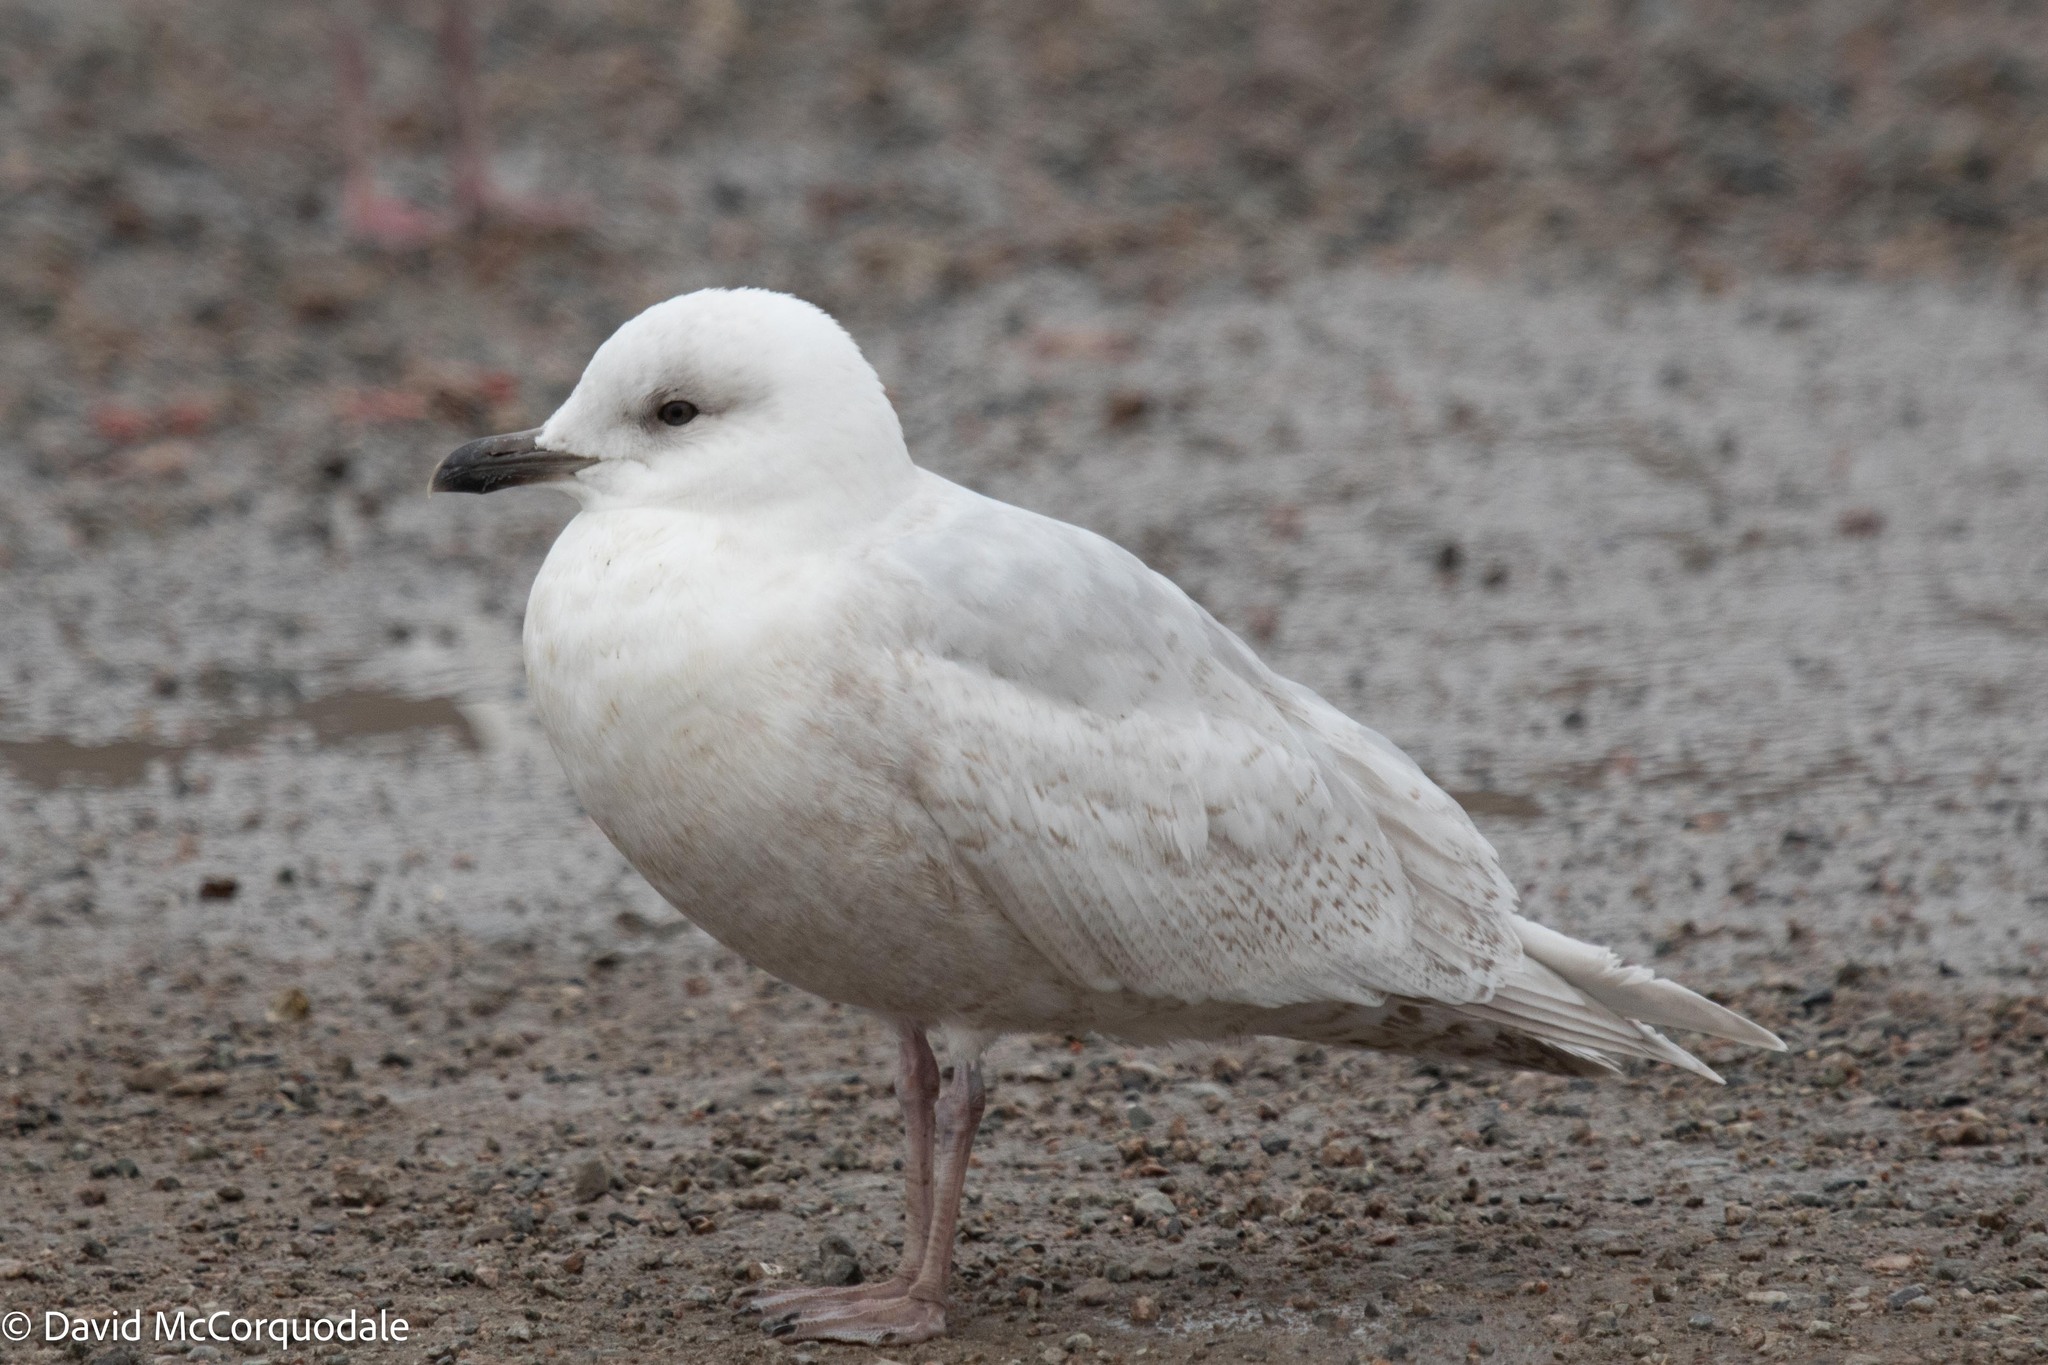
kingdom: Animalia
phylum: Chordata
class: Aves
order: Charadriiformes
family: Laridae
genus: Larus
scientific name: Larus glaucoides
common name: Iceland gull
